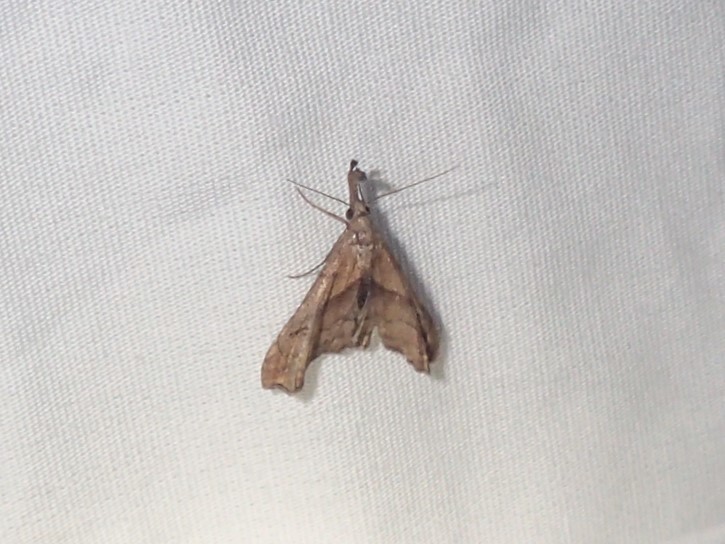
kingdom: Animalia
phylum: Arthropoda
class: Insecta
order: Lepidoptera
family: Erebidae
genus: Palthis
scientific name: Palthis angulalis
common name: Dark-spotted palthis moth
